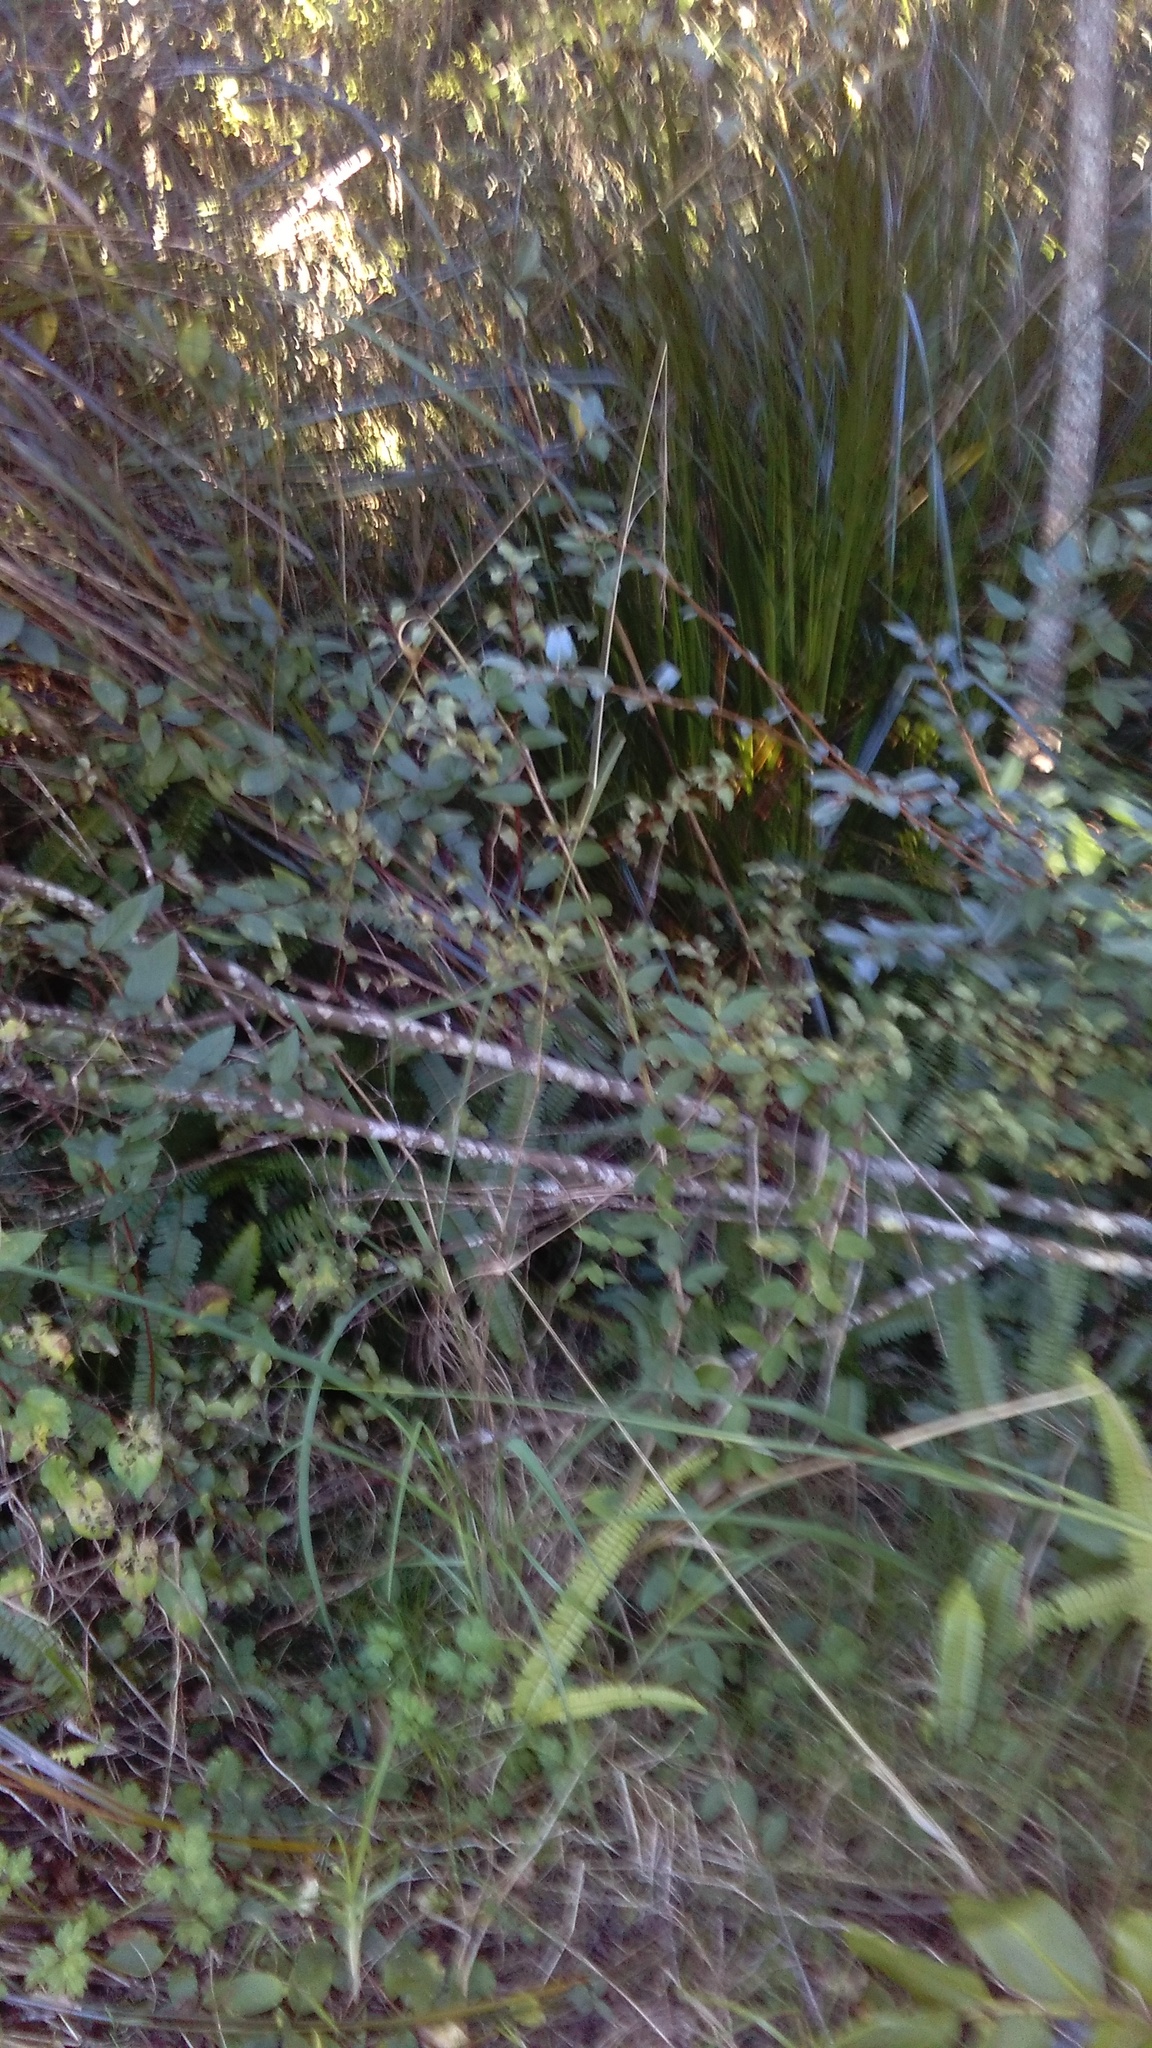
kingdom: Plantae
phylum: Tracheophyta
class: Magnoliopsida
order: Dipsacales
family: Caprifoliaceae
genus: Lonicera
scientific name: Lonicera japonica
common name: Japanese honeysuckle
